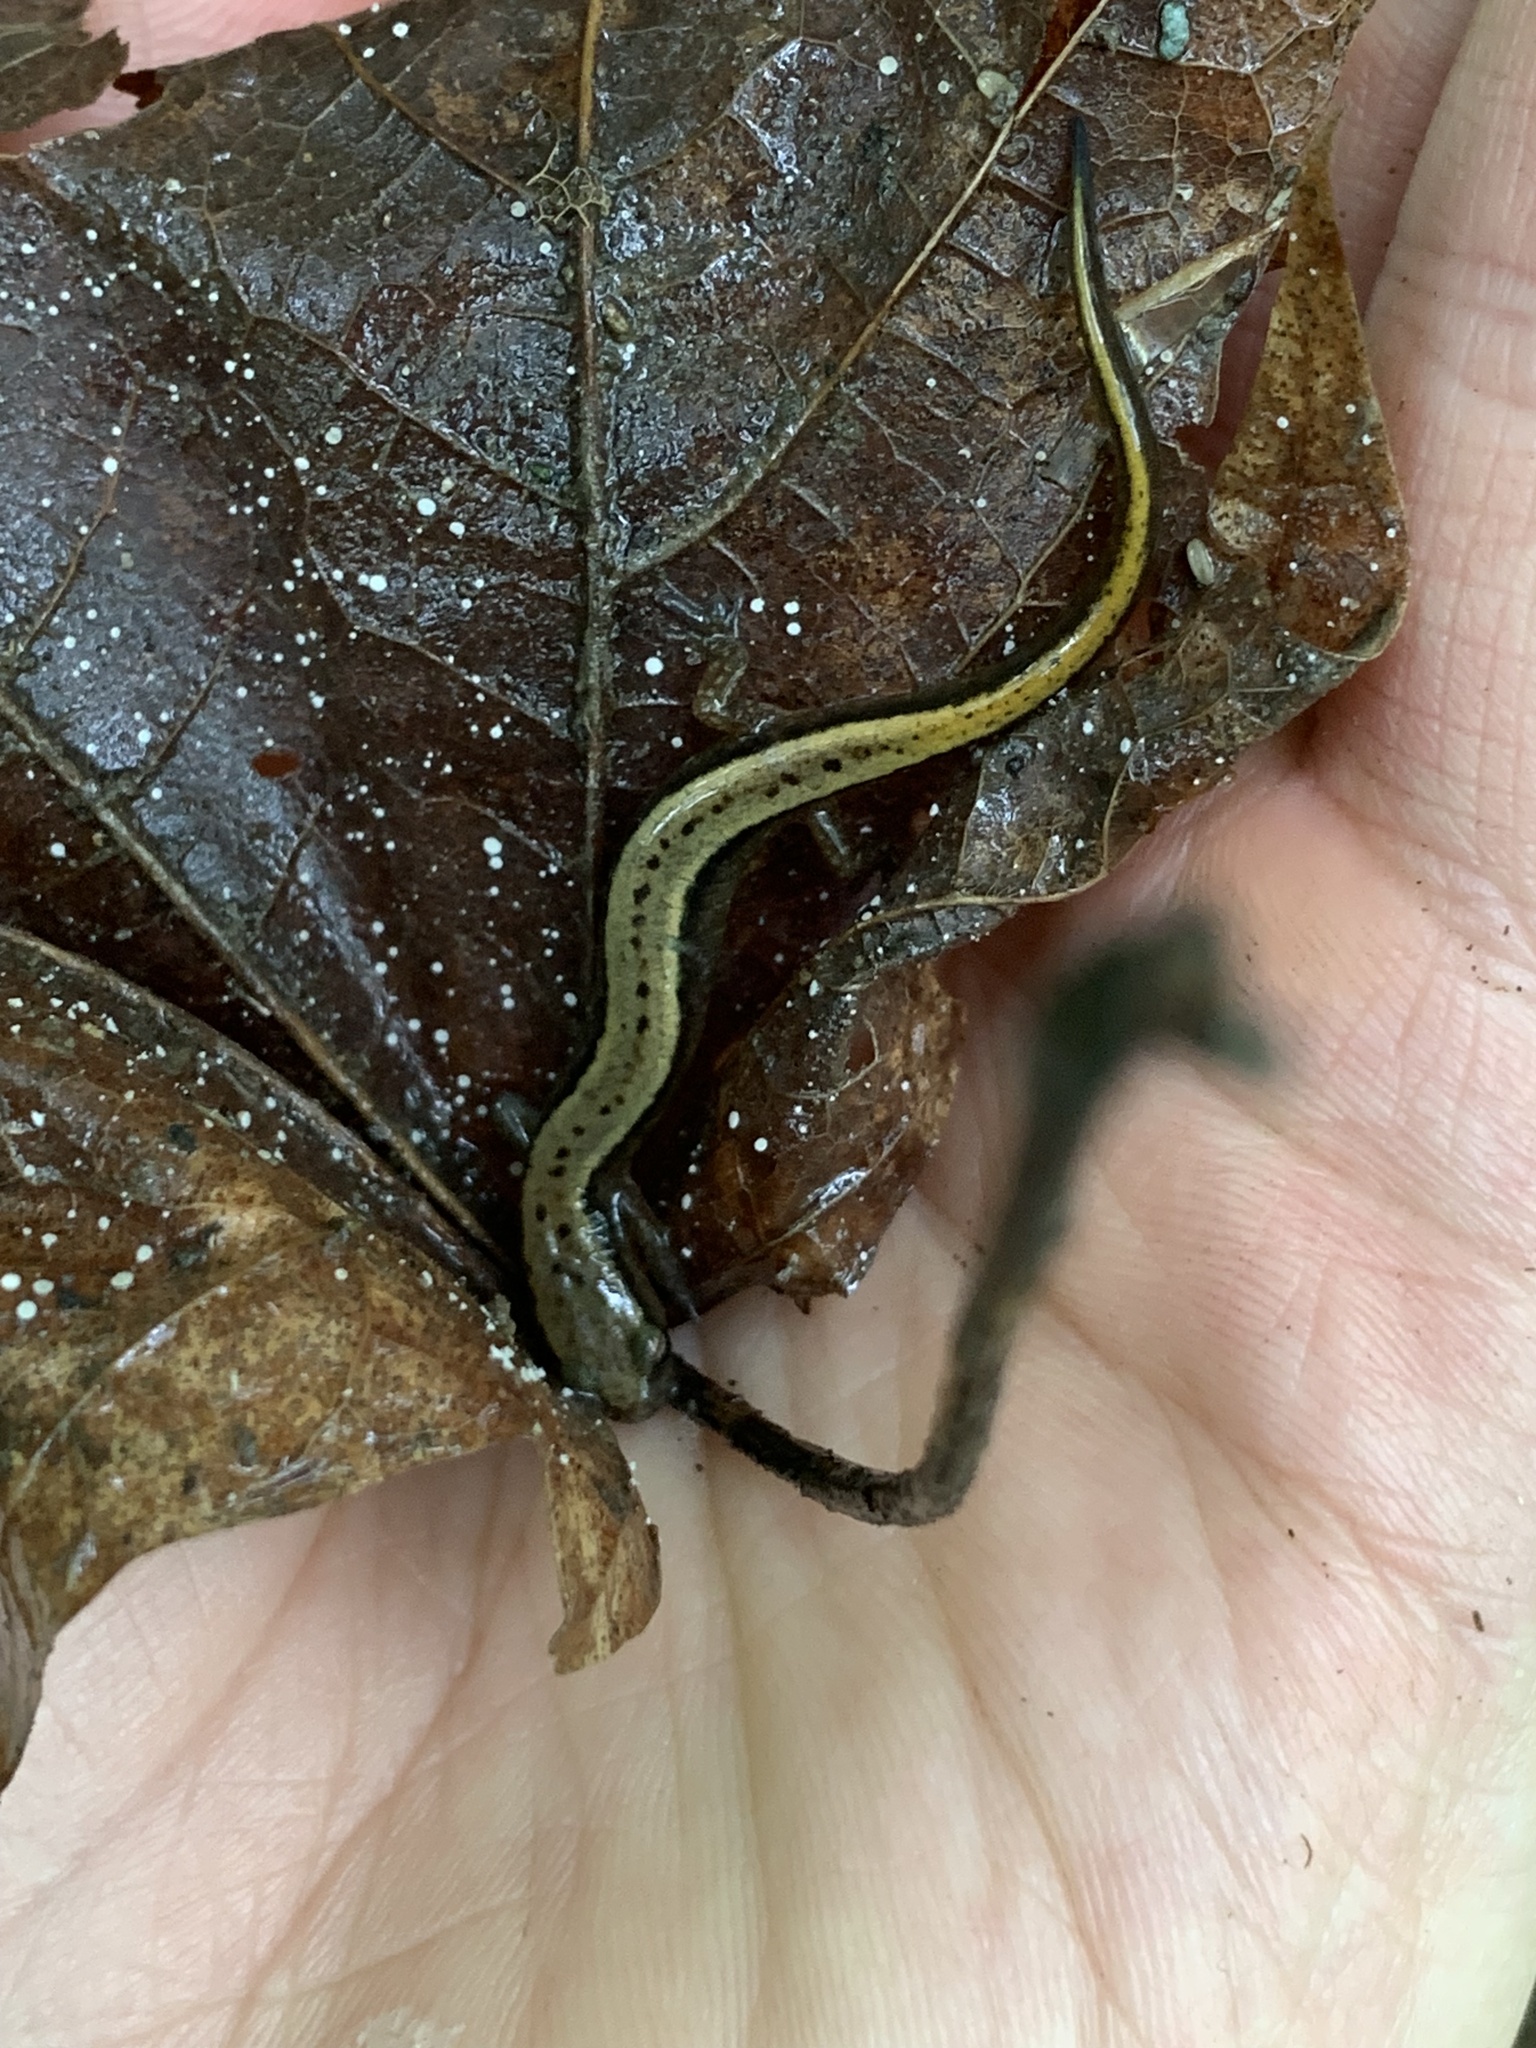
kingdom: Animalia
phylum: Chordata
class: Amphibia
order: Caudata
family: Plethodontidae
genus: Eurycea
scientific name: Eurycea cirrigera
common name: Southern two-lined salamander
